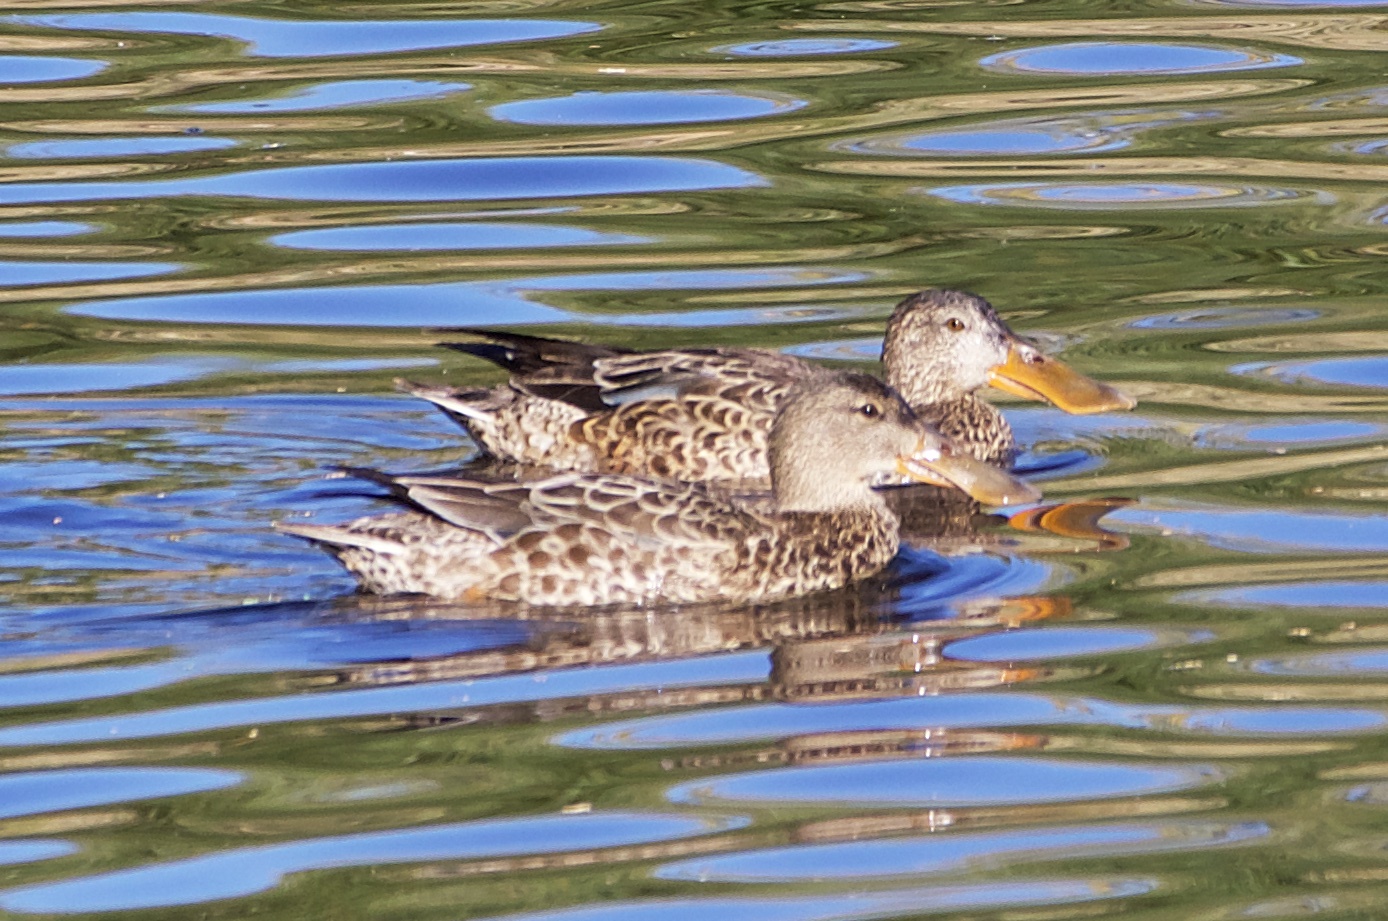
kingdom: Animalia
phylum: Chordata
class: Aves
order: Anseriformes
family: Anatidae
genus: Spatula
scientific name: Spatula clypeata
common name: Northern shoveler
